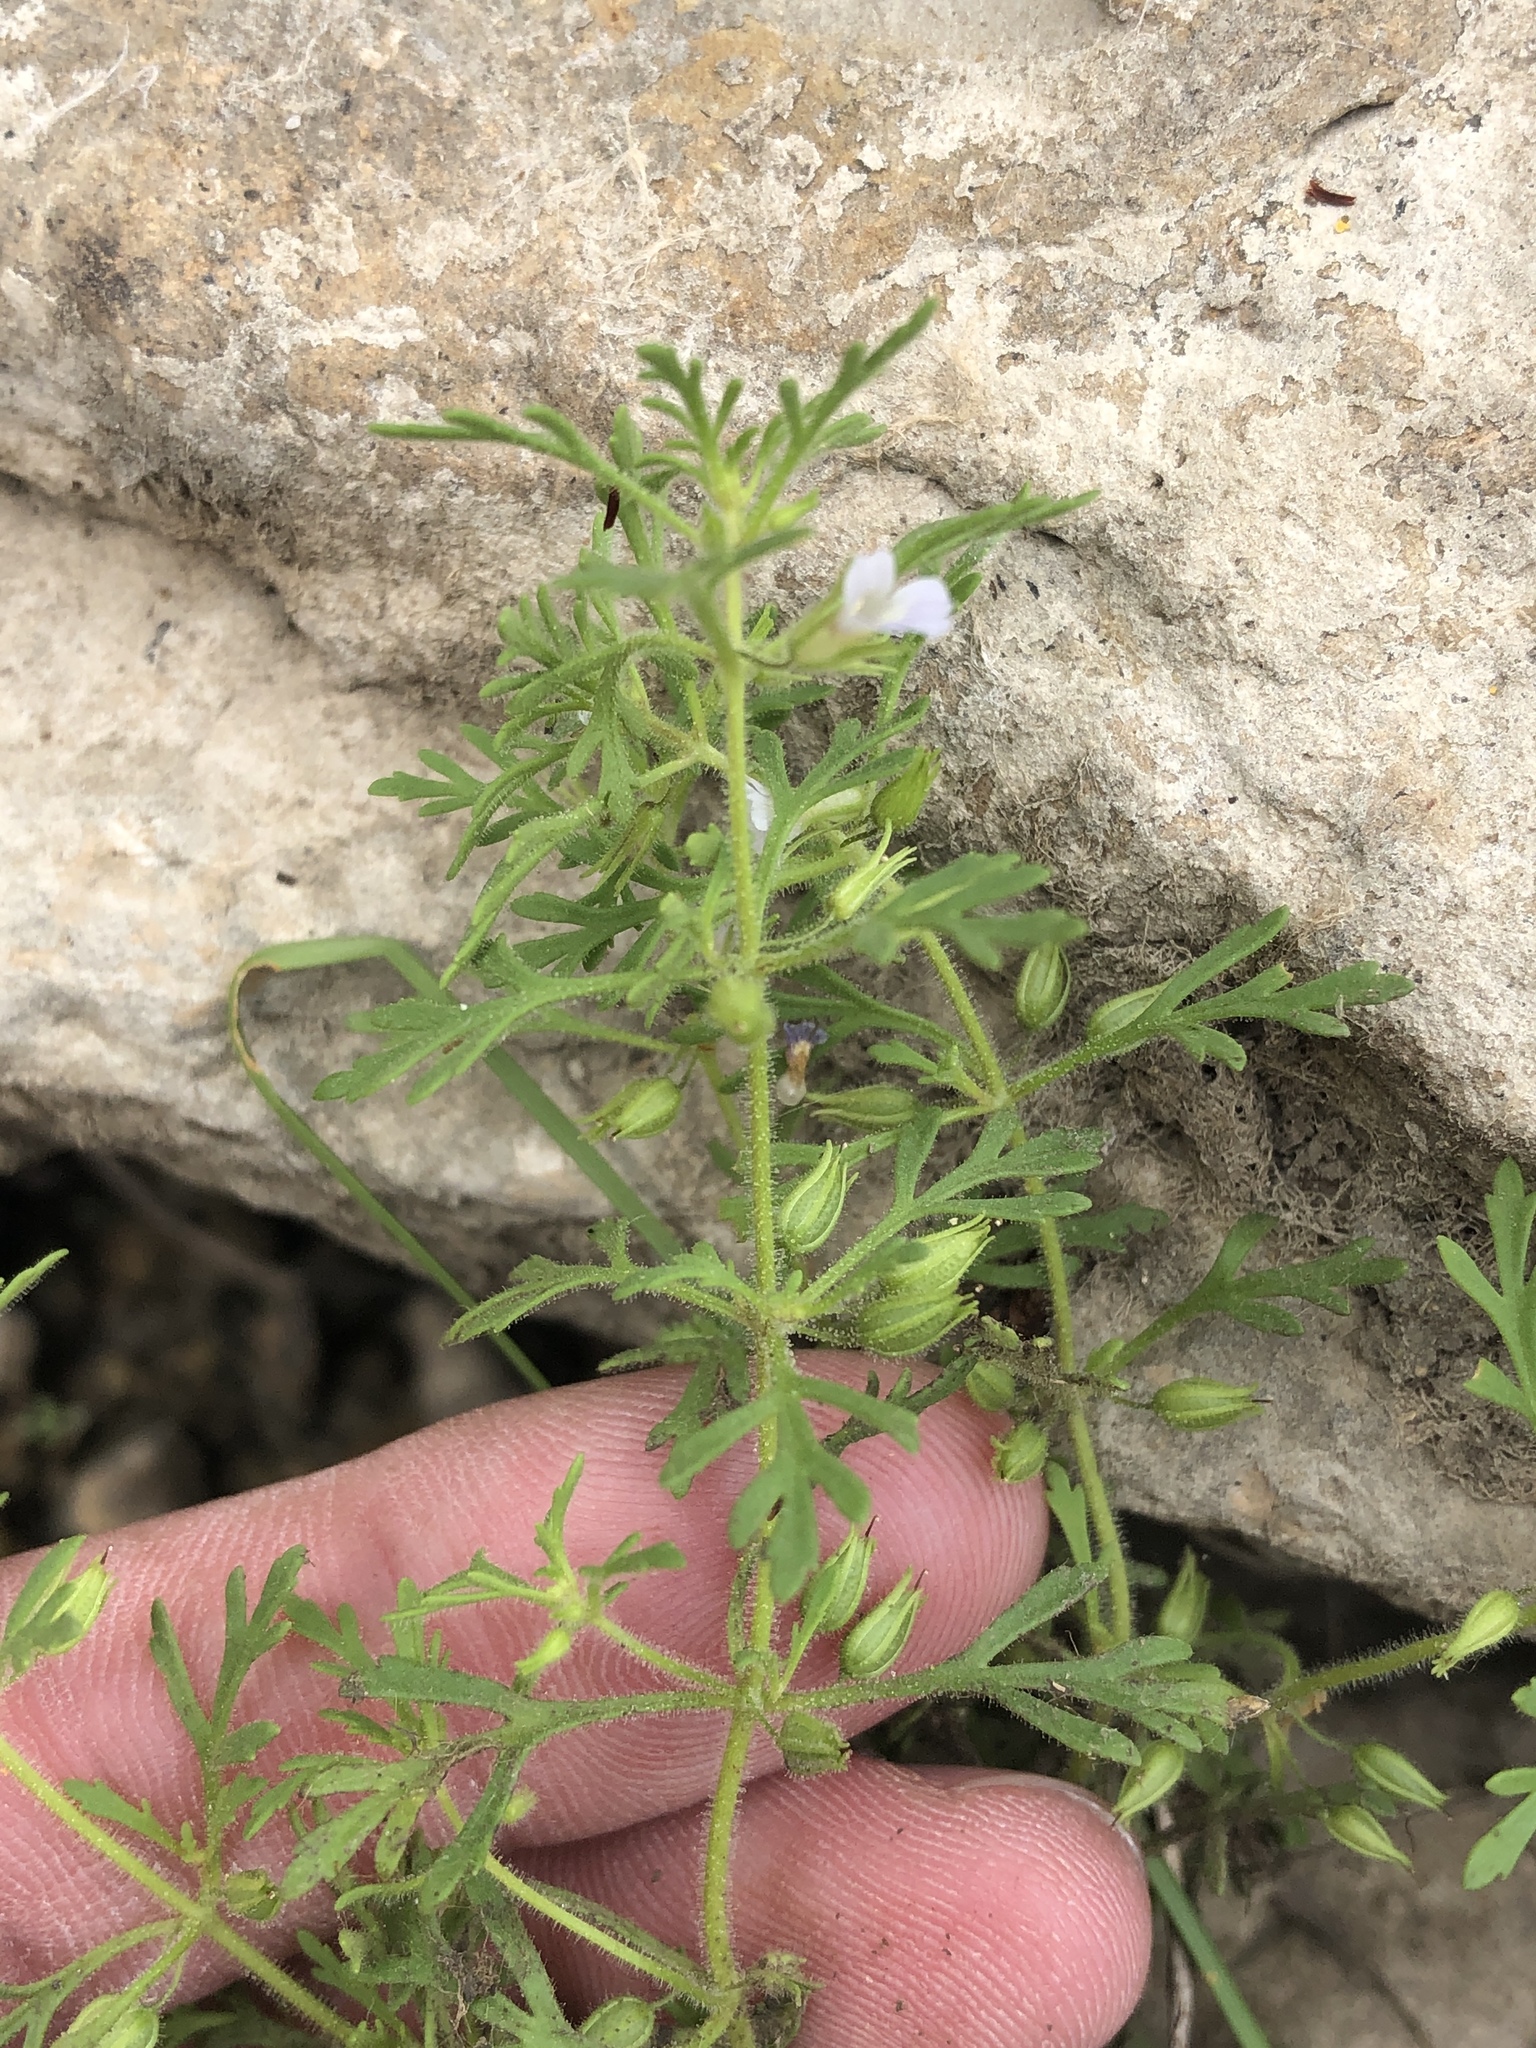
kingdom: Plantae
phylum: Tracheophyta
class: Magnoliopsida
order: Lamiales
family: Plantaginaceae
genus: Leucospora
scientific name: Leucospora multifida
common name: Narrow-leaf paleseed
